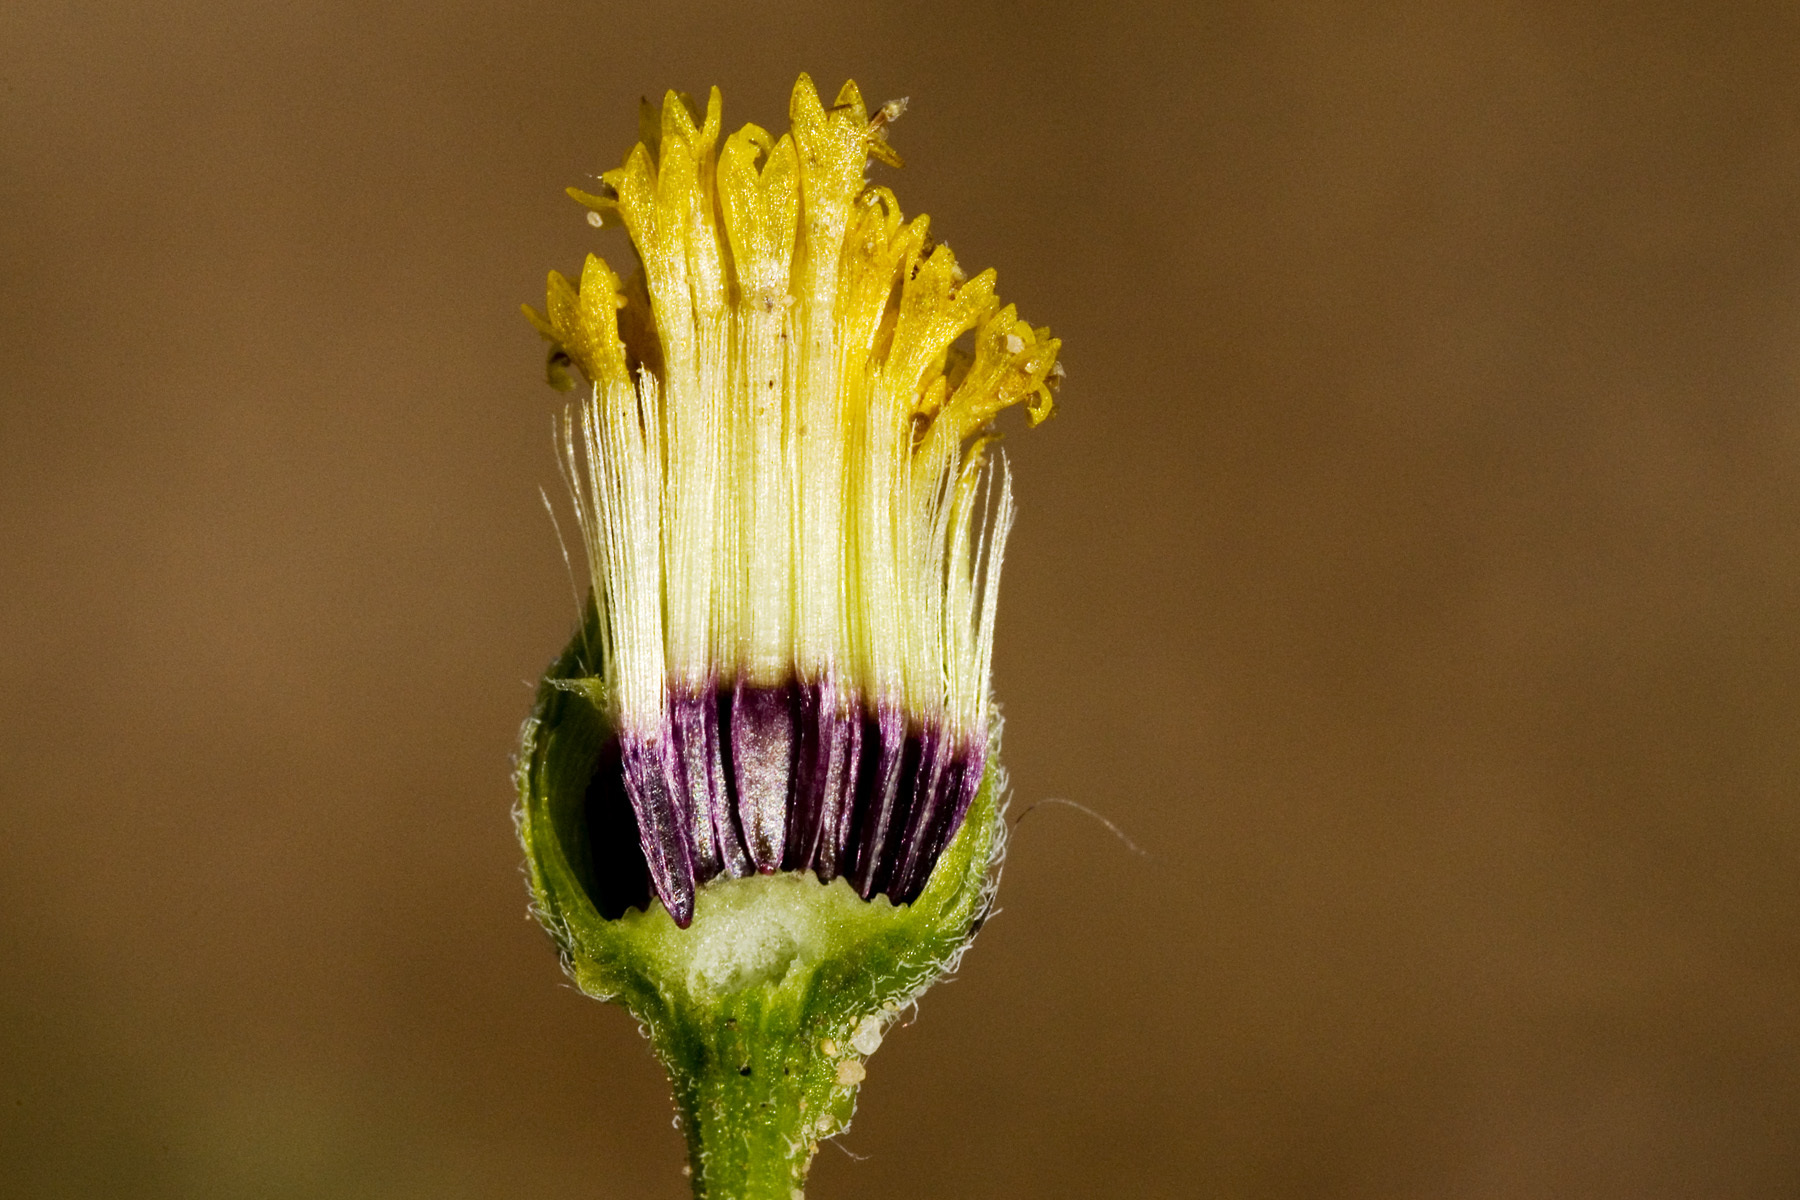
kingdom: Plantae
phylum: Tracheophyta
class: Magnoliopsida
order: Asterales
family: Asteraceae
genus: Bartlettia
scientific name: Bartlettia scaposa
